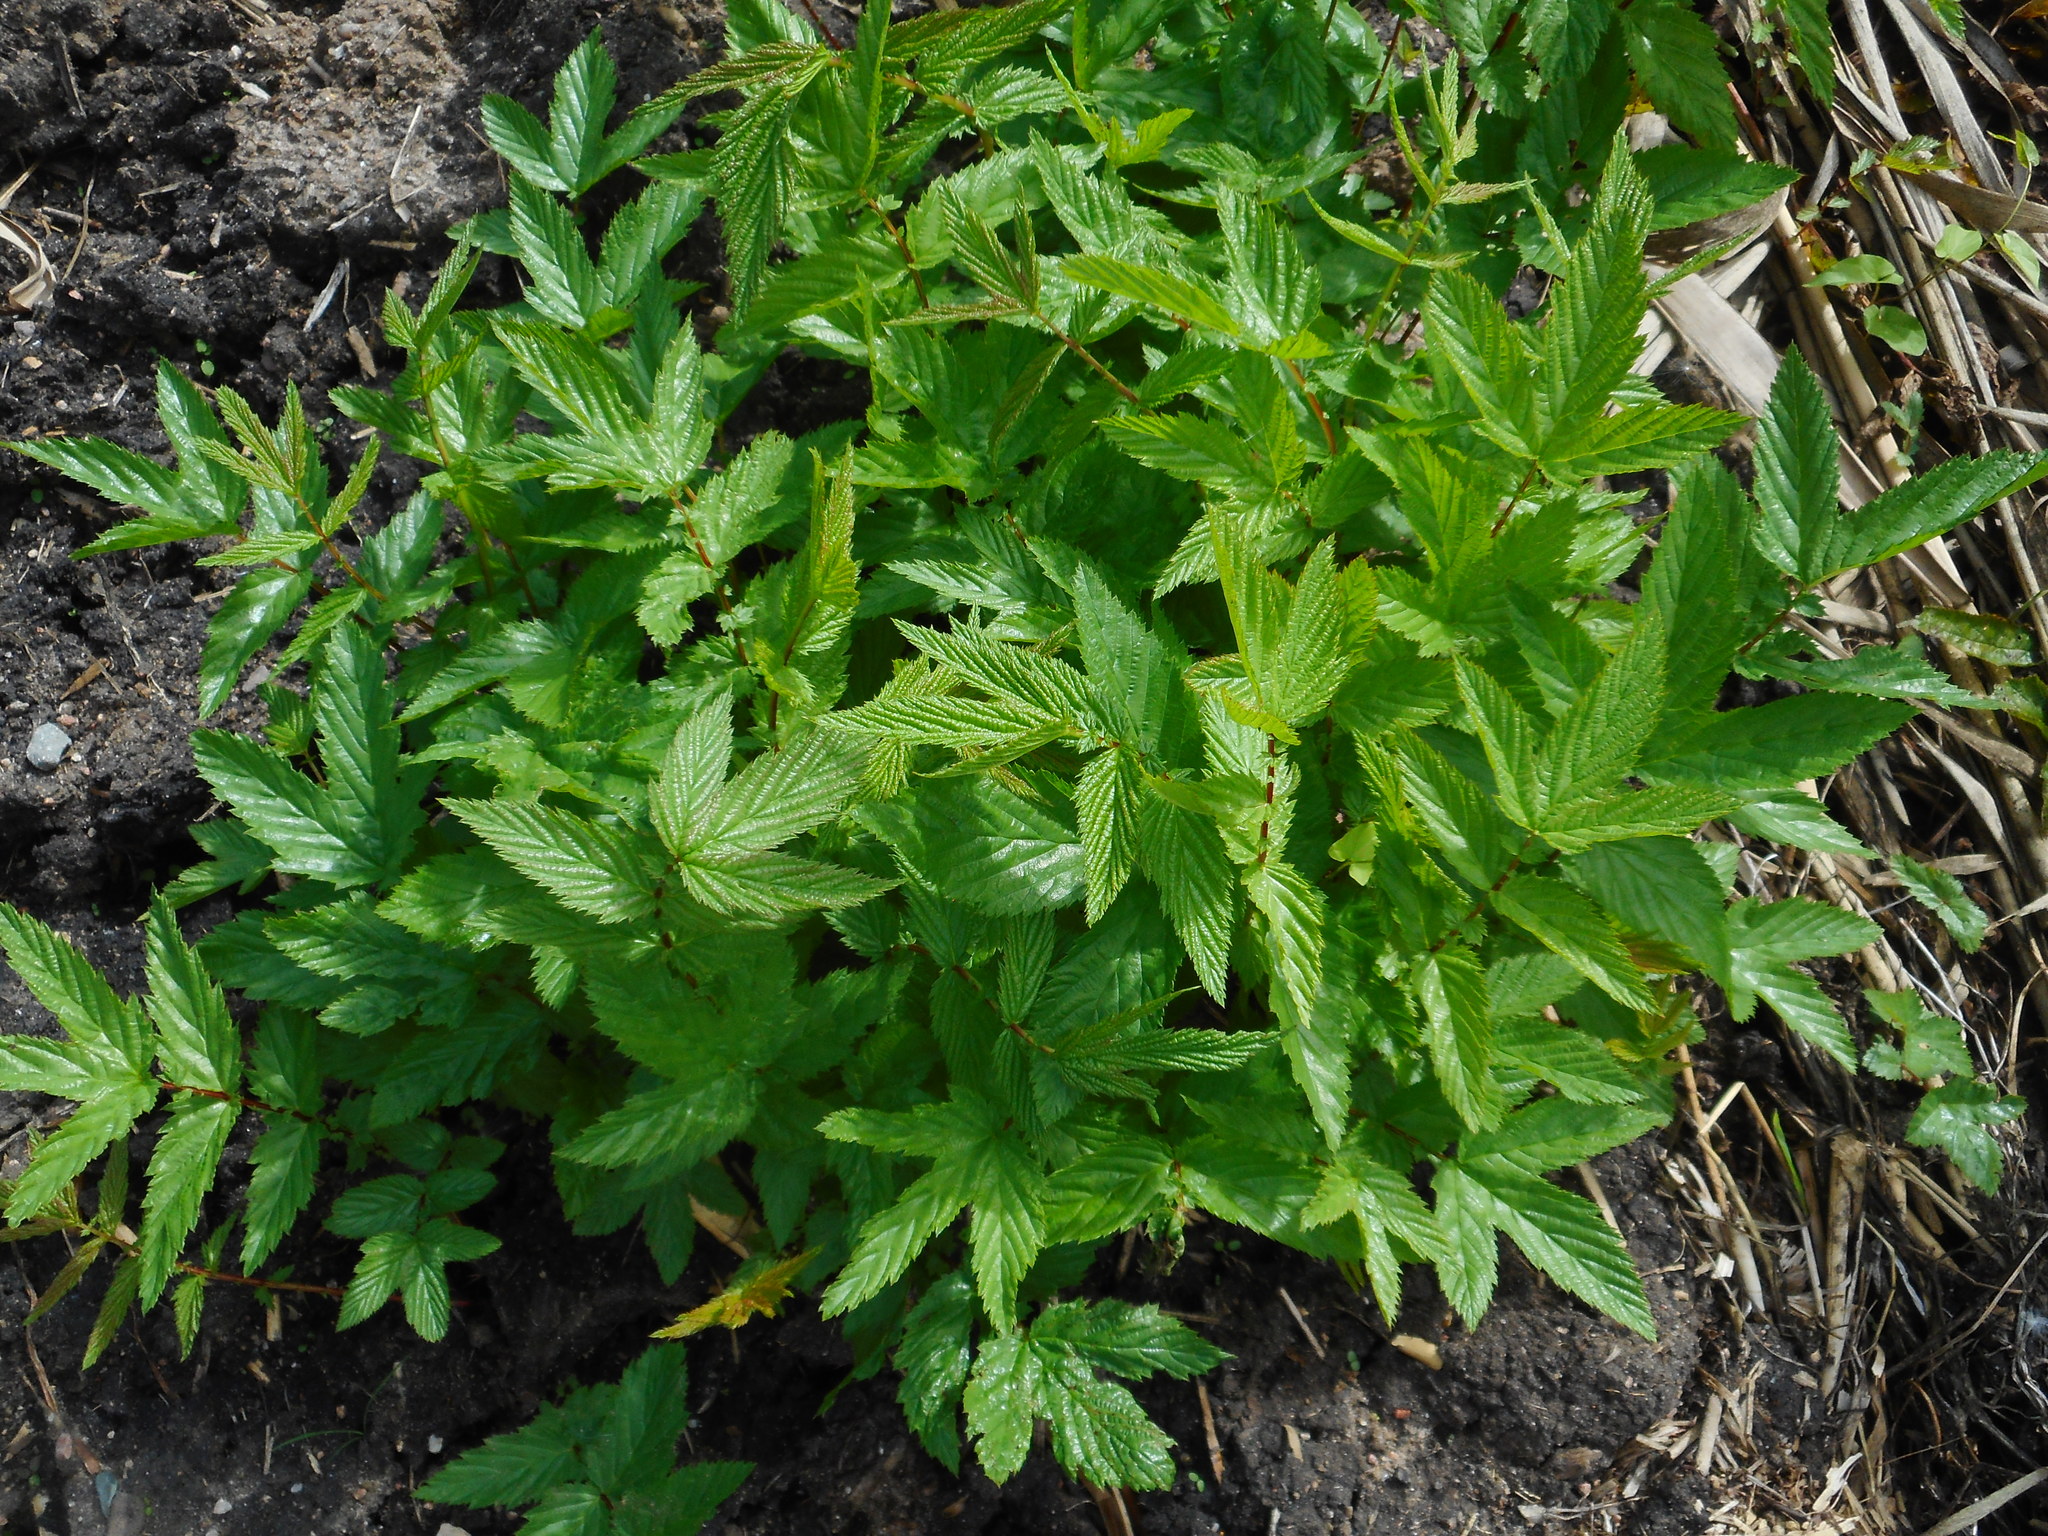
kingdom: Plantae
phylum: Tracheophyta
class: Magnoliopsida
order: Rosales
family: Rosaceae
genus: Filipendula
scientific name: Filipendula ulmaria
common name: Meadowsweet
